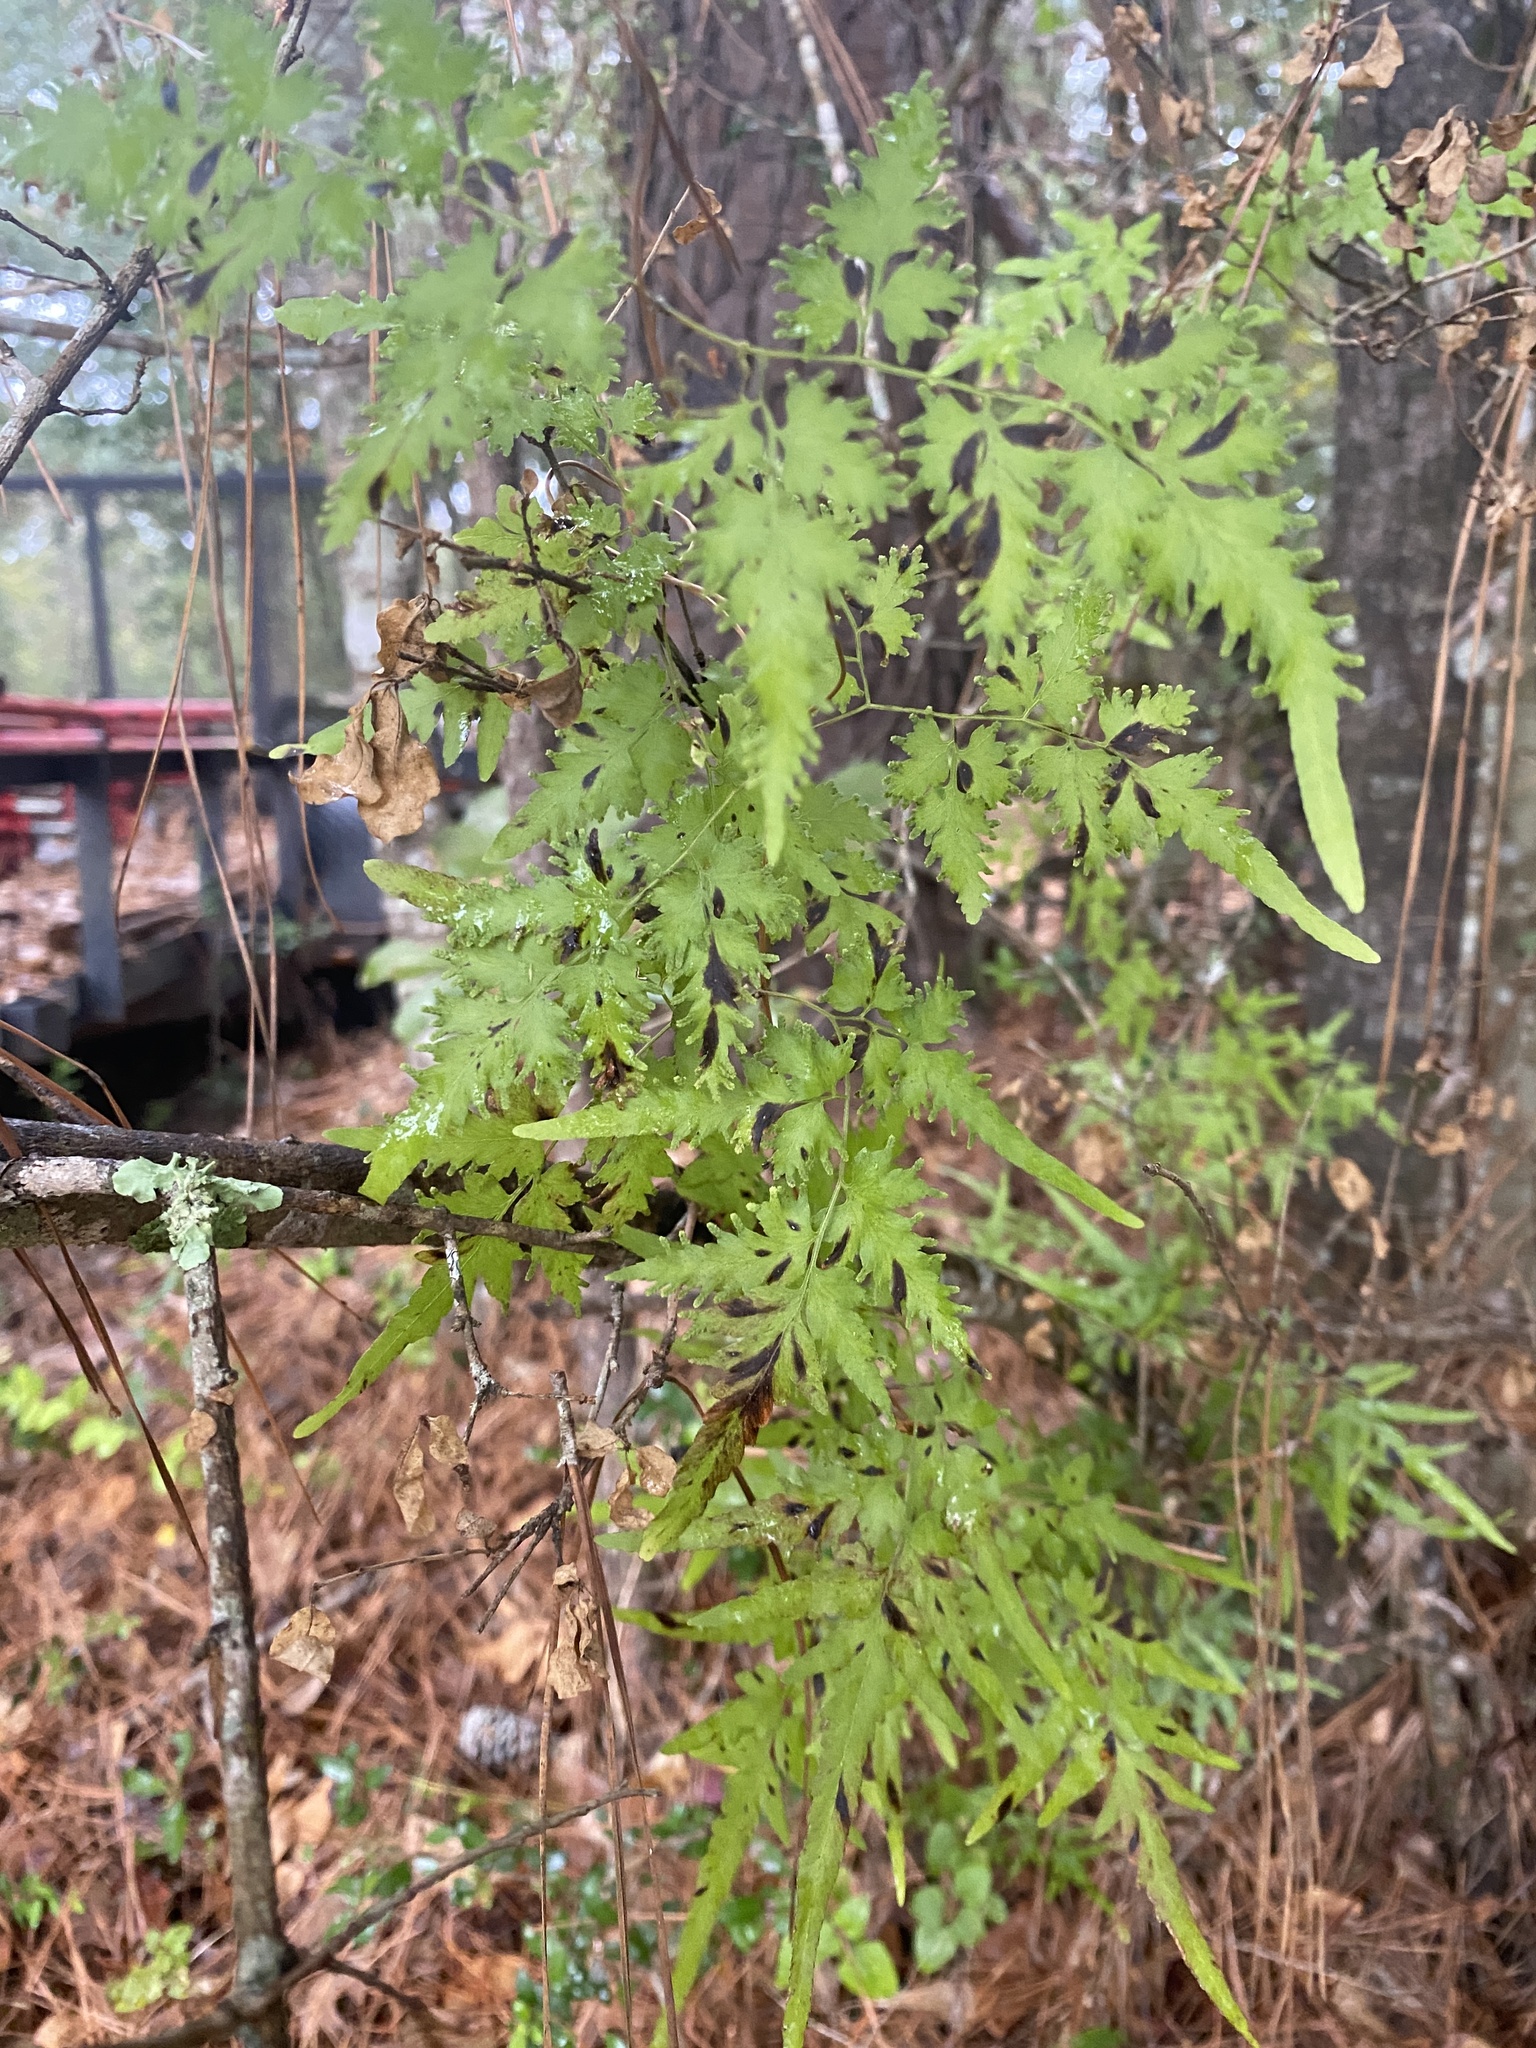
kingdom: Plantae
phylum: Tracheophyta
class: Polypodiopsida
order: Schizaeales
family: Lygodiaceae
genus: Lygodium
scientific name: Lygodium japonicum
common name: Japanese climbing fern
